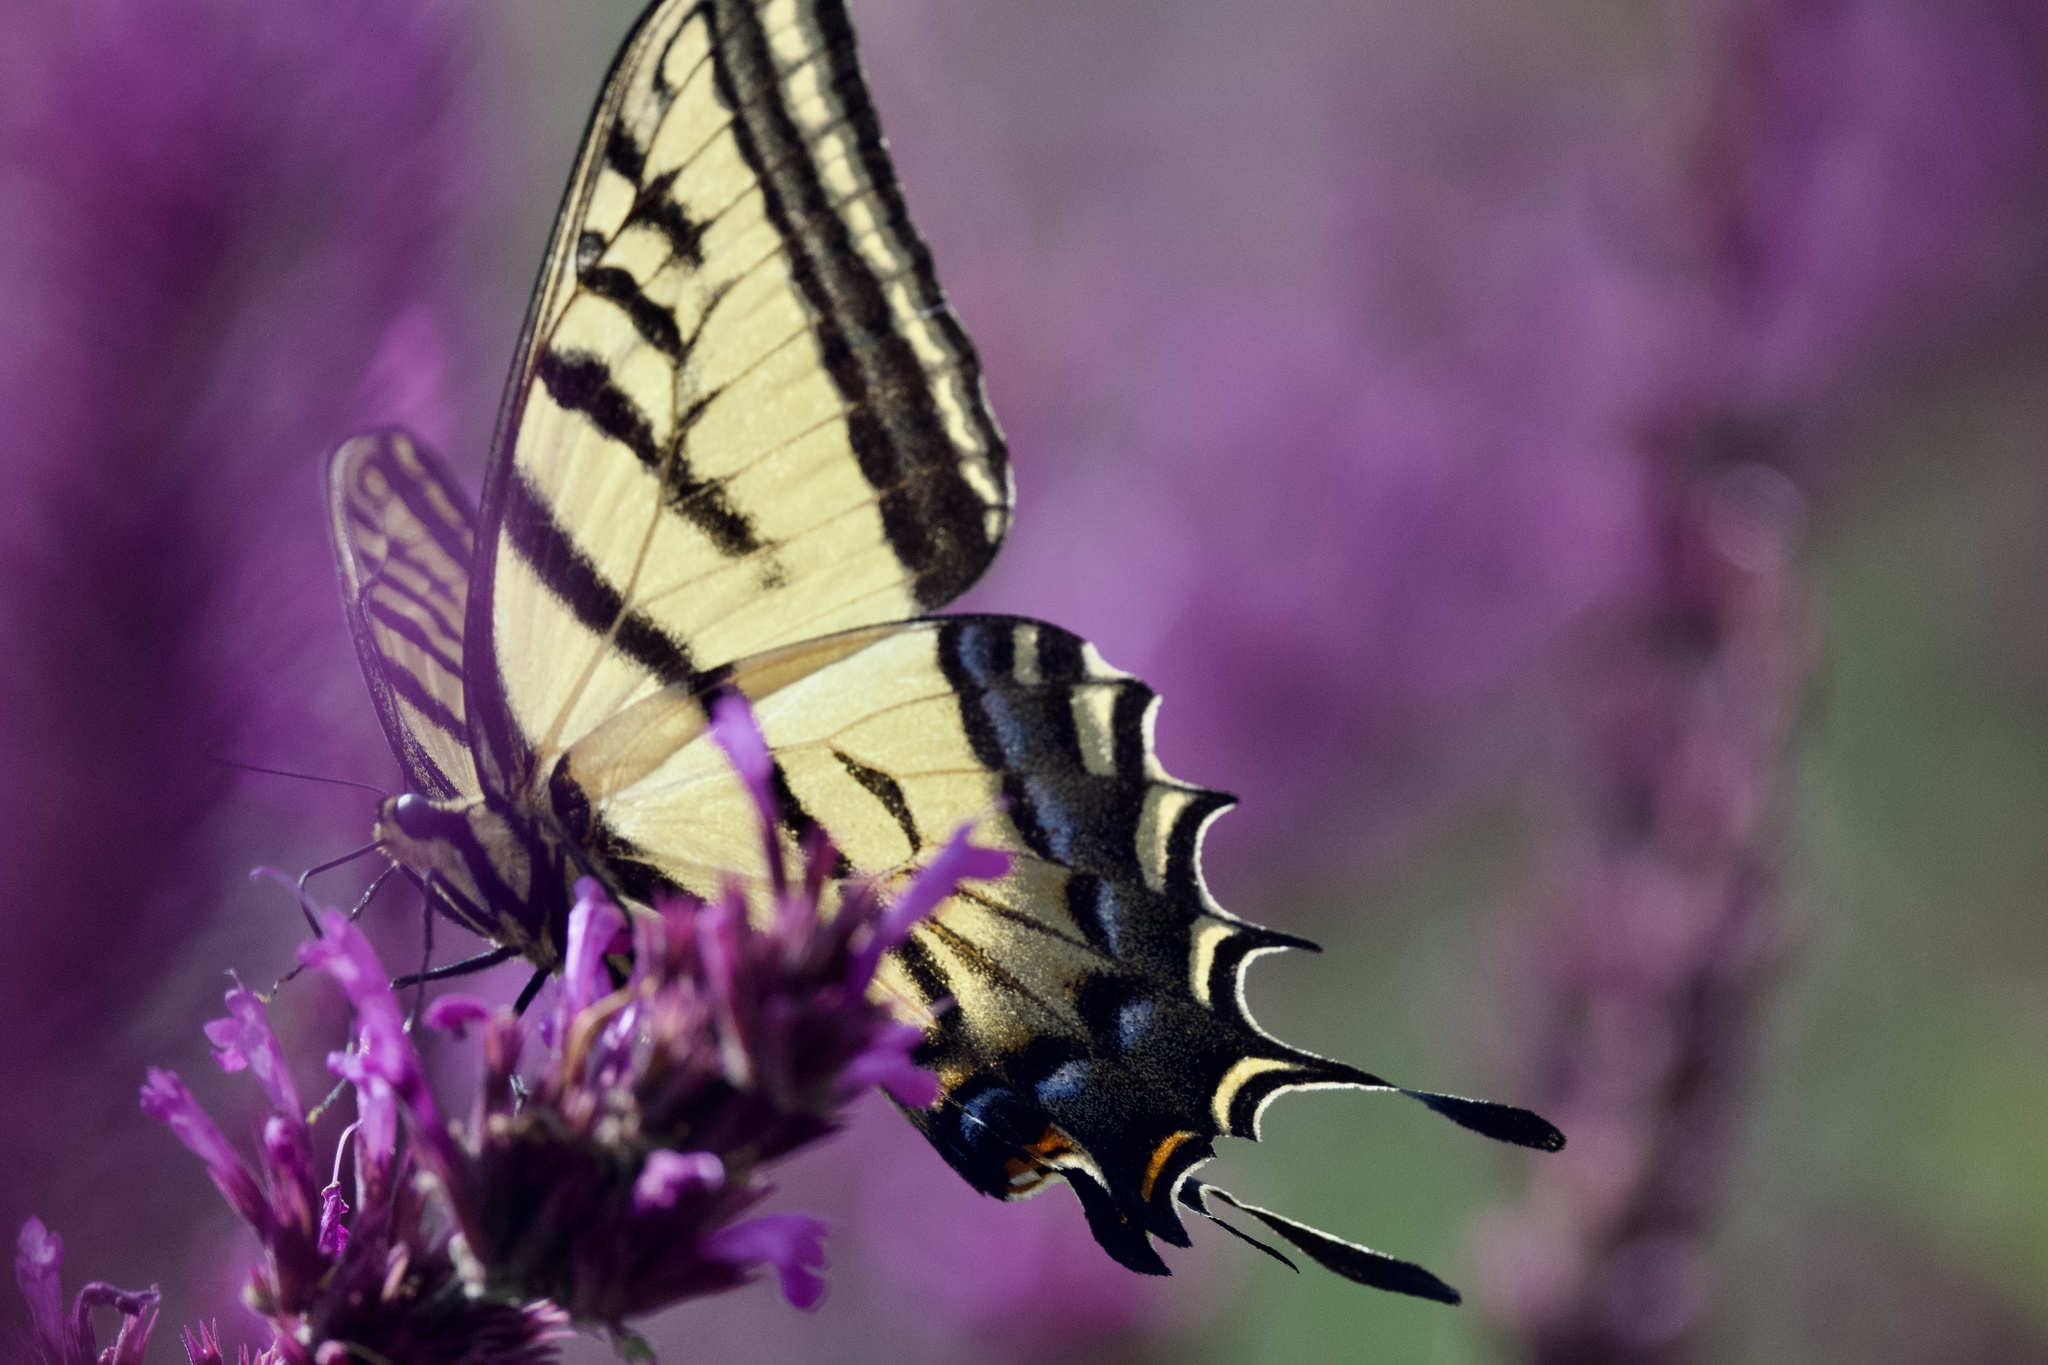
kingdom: Animalia
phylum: Arthropoda
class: Insecta
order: Lepidoptera
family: Papilionidae
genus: Papilio
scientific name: Papilio multicaudata
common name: Two-tailed tiger swallowtail
